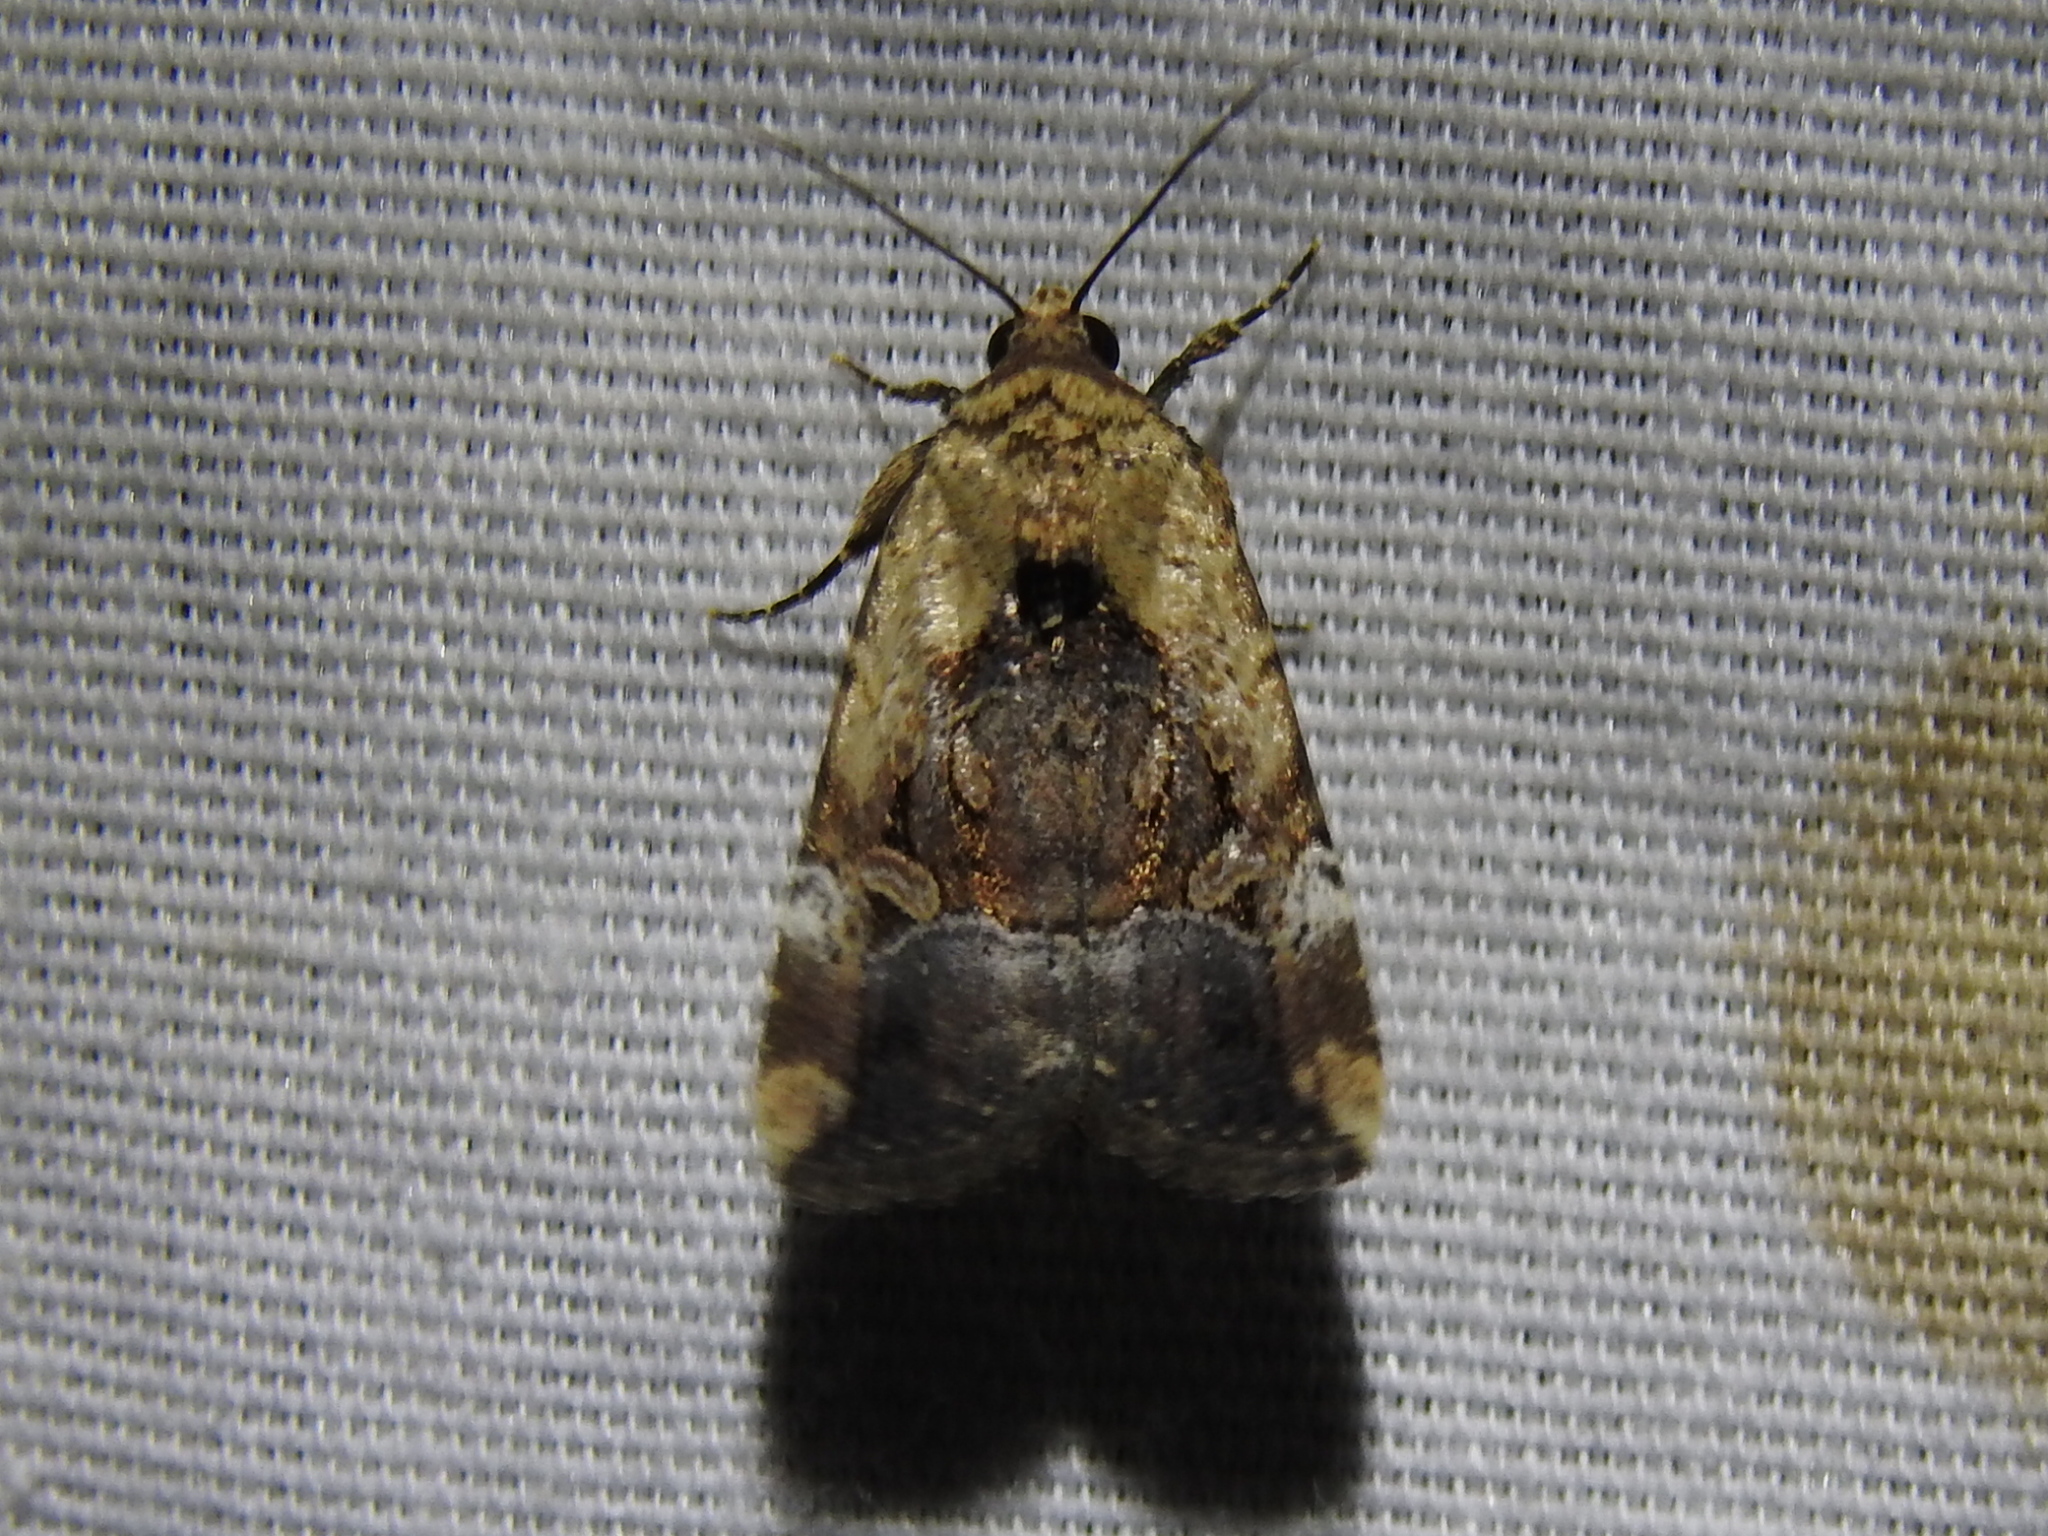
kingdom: Animalia
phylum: Arthropoda
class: Insecta
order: Lepidoptera
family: Noctuidae
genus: Elaphria
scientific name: Elaphria chalcedonia
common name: Chalcedony midget
